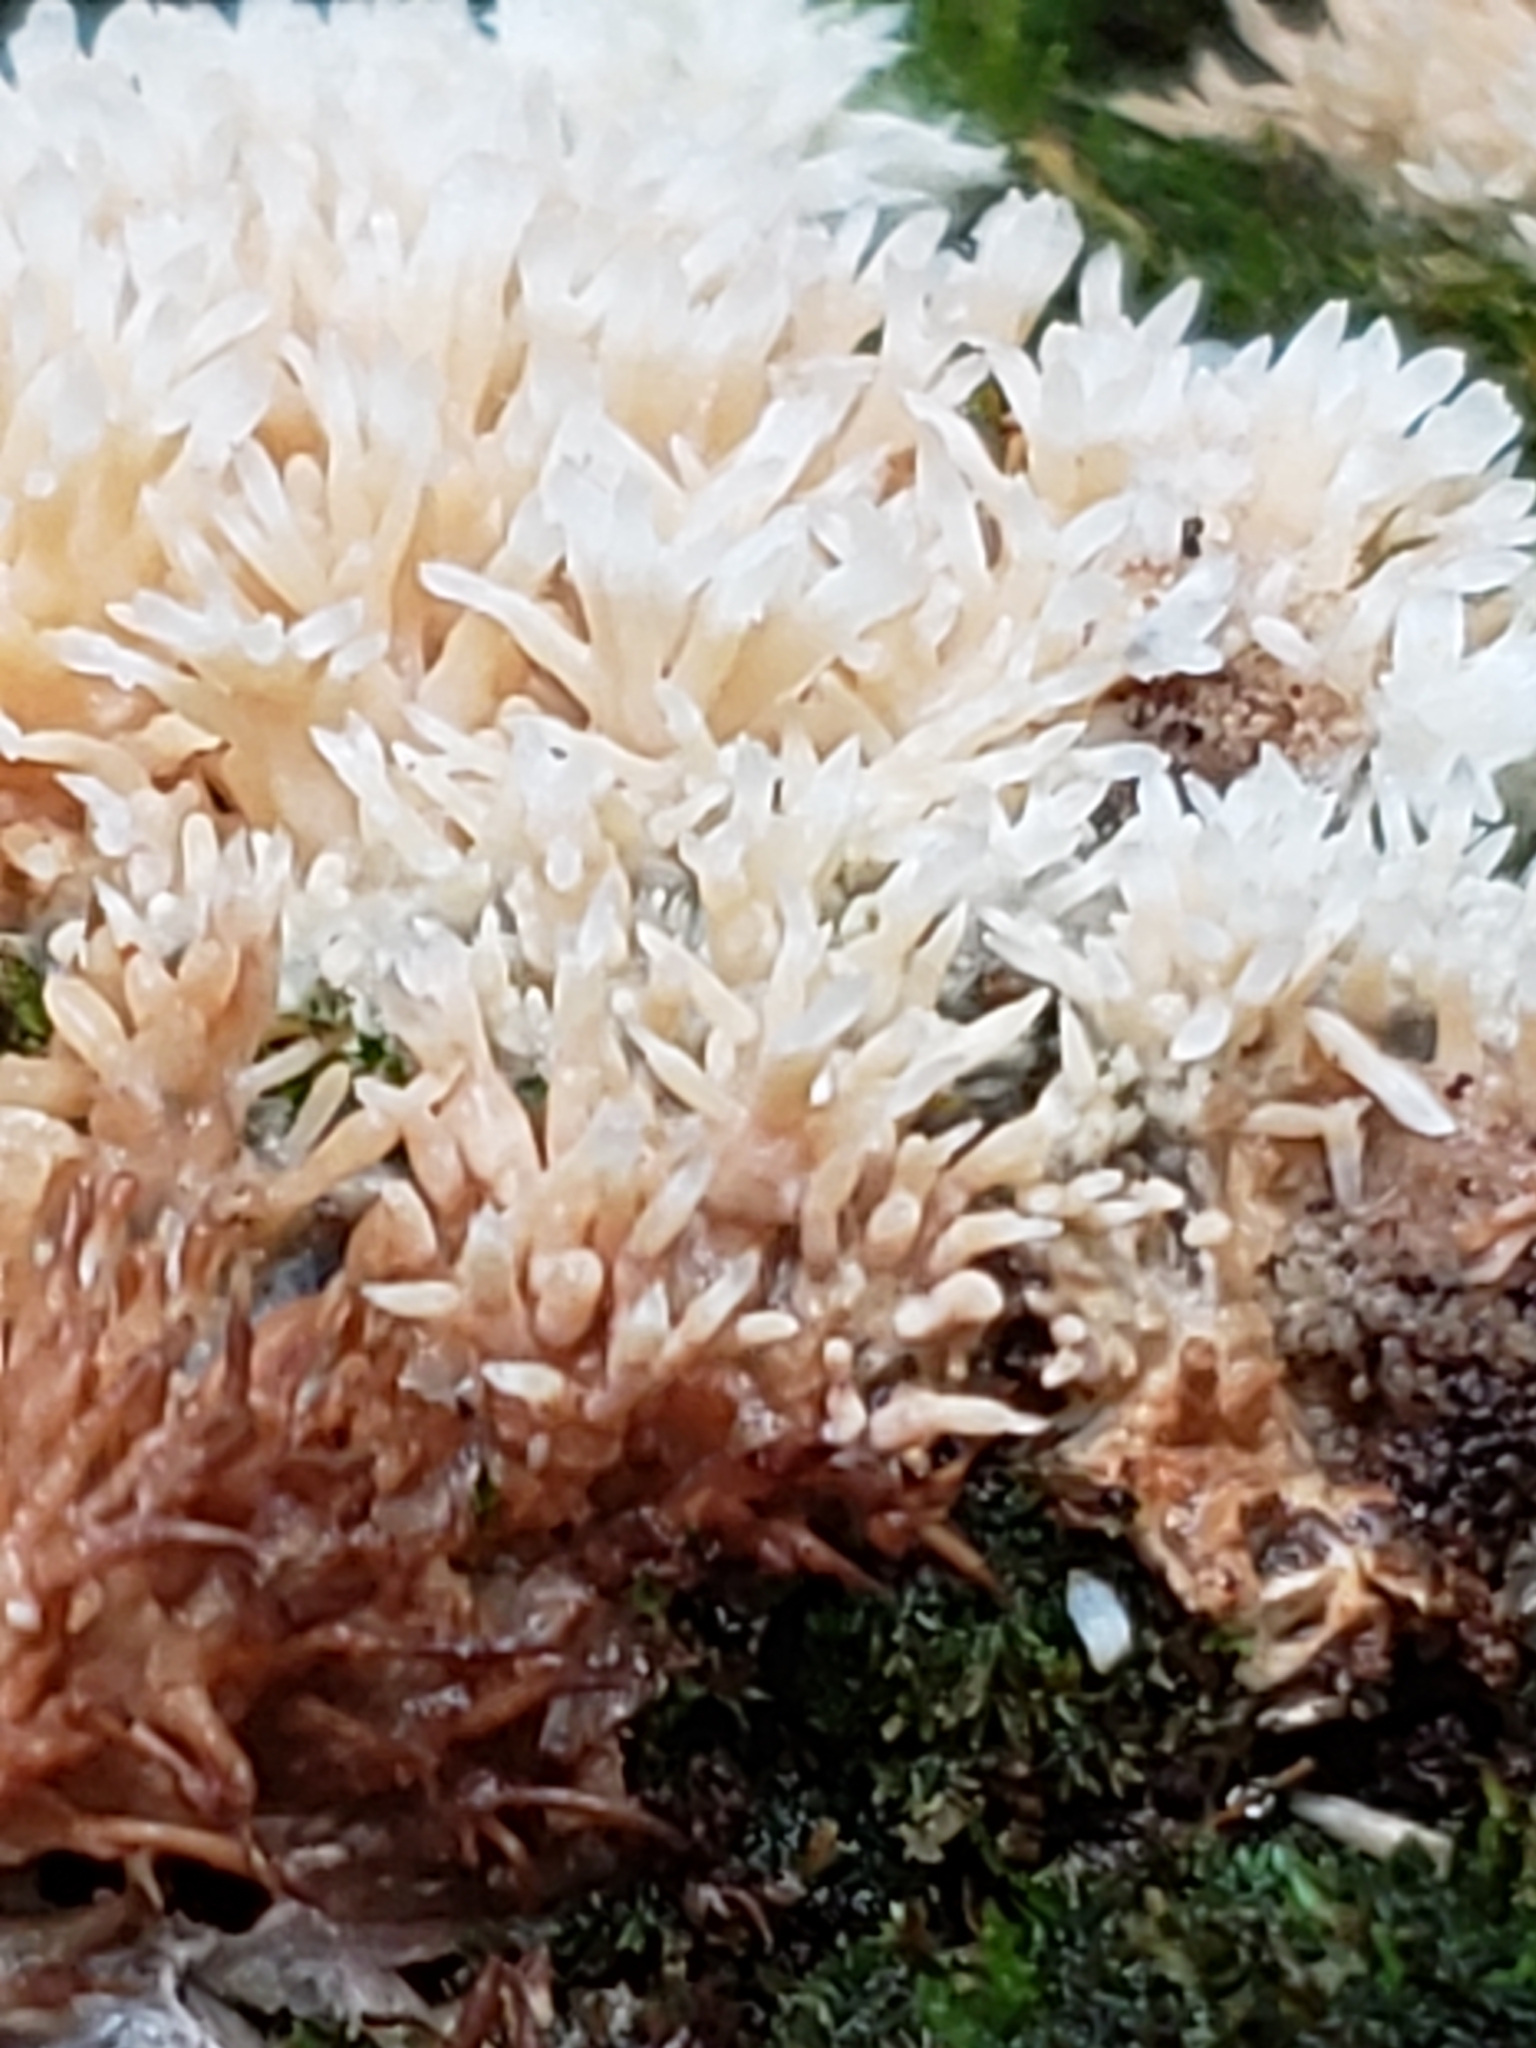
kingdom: Fungi
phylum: Basidiomycota
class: Agaricomycetes
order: Agaricales
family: Radulomycetaceae
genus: Radulomyces
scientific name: Radulomyces copelandii
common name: Asian beauty
